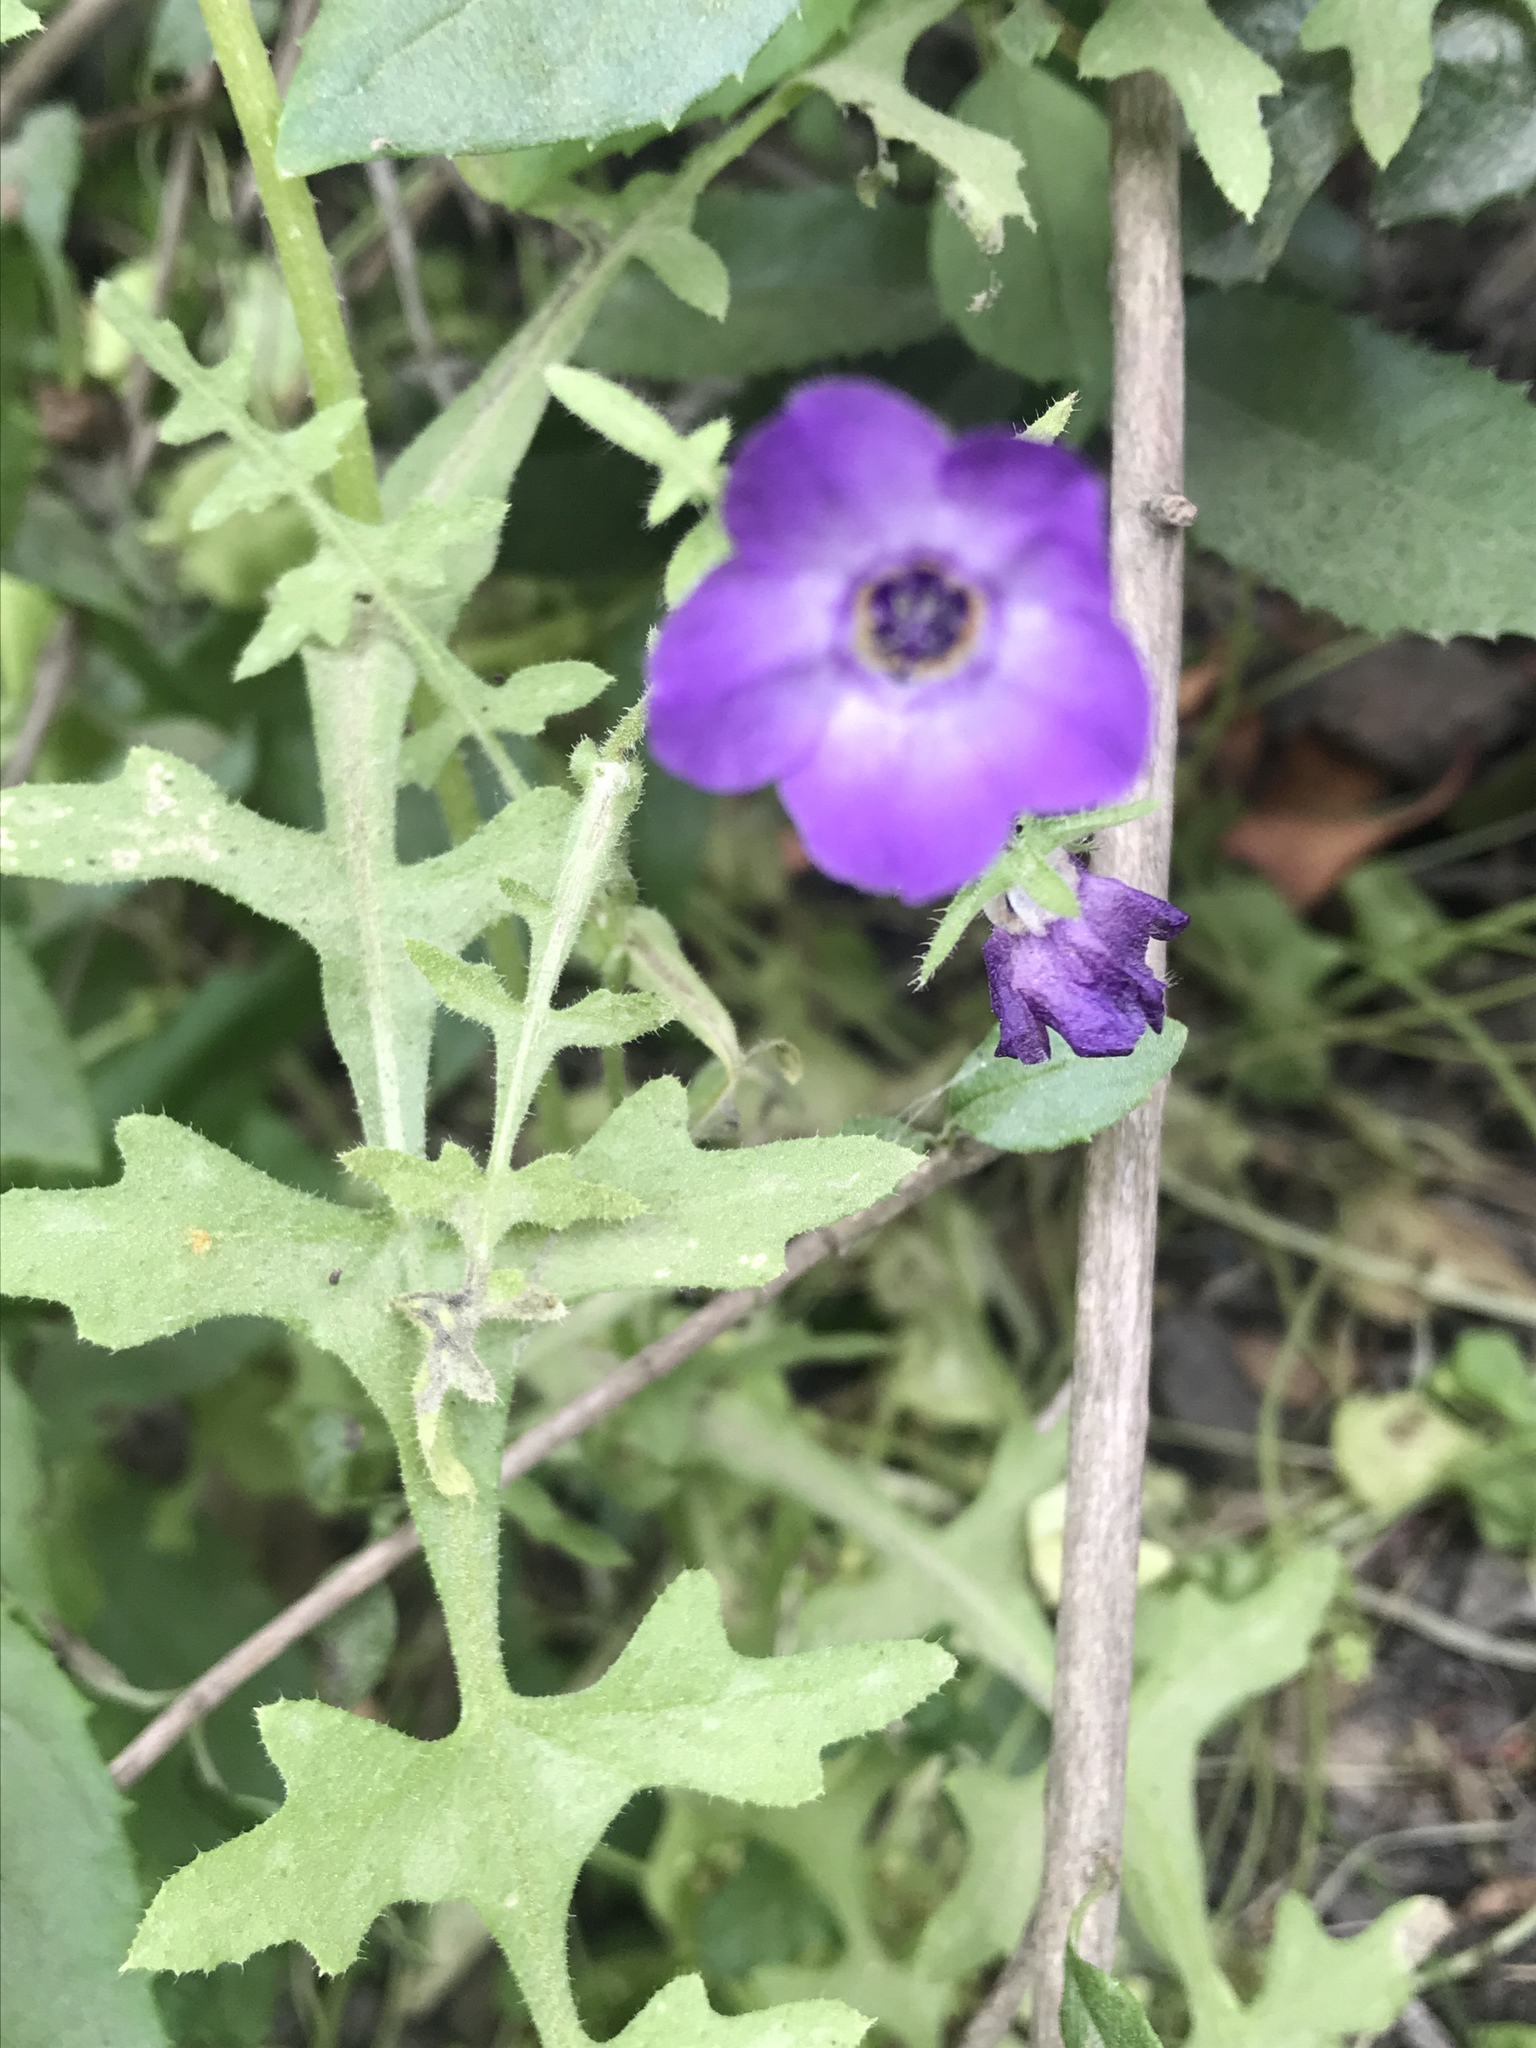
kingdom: Plantae
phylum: Tracheophyta
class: Magnoliopsida
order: Boraginales
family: Hydrophyllaceae
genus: Pholistoma
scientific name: Pholistoma auritum
